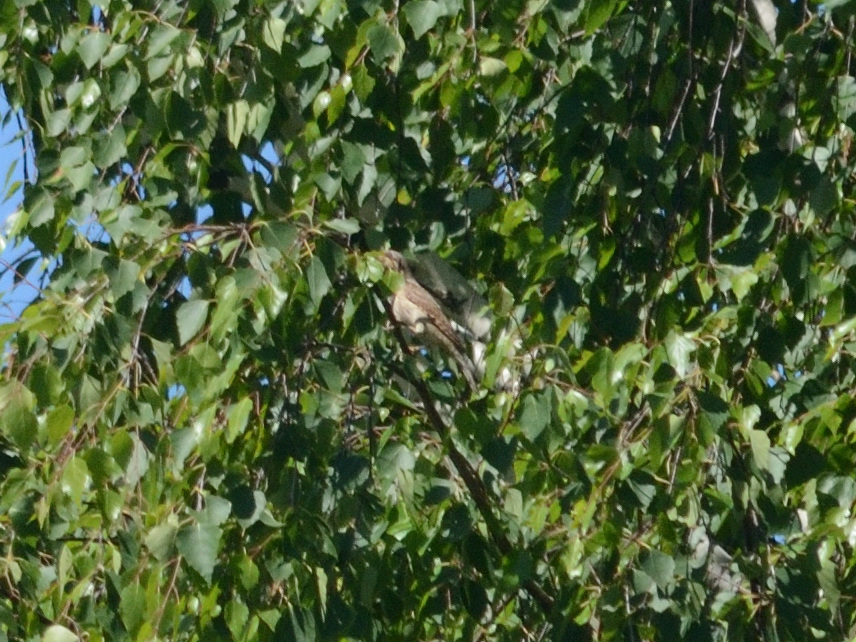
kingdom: Animalia
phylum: Chordata
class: Aves
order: Piciformes
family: Picidae
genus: Jynx
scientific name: Jynx torquilla
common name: Eurasian wryneck
